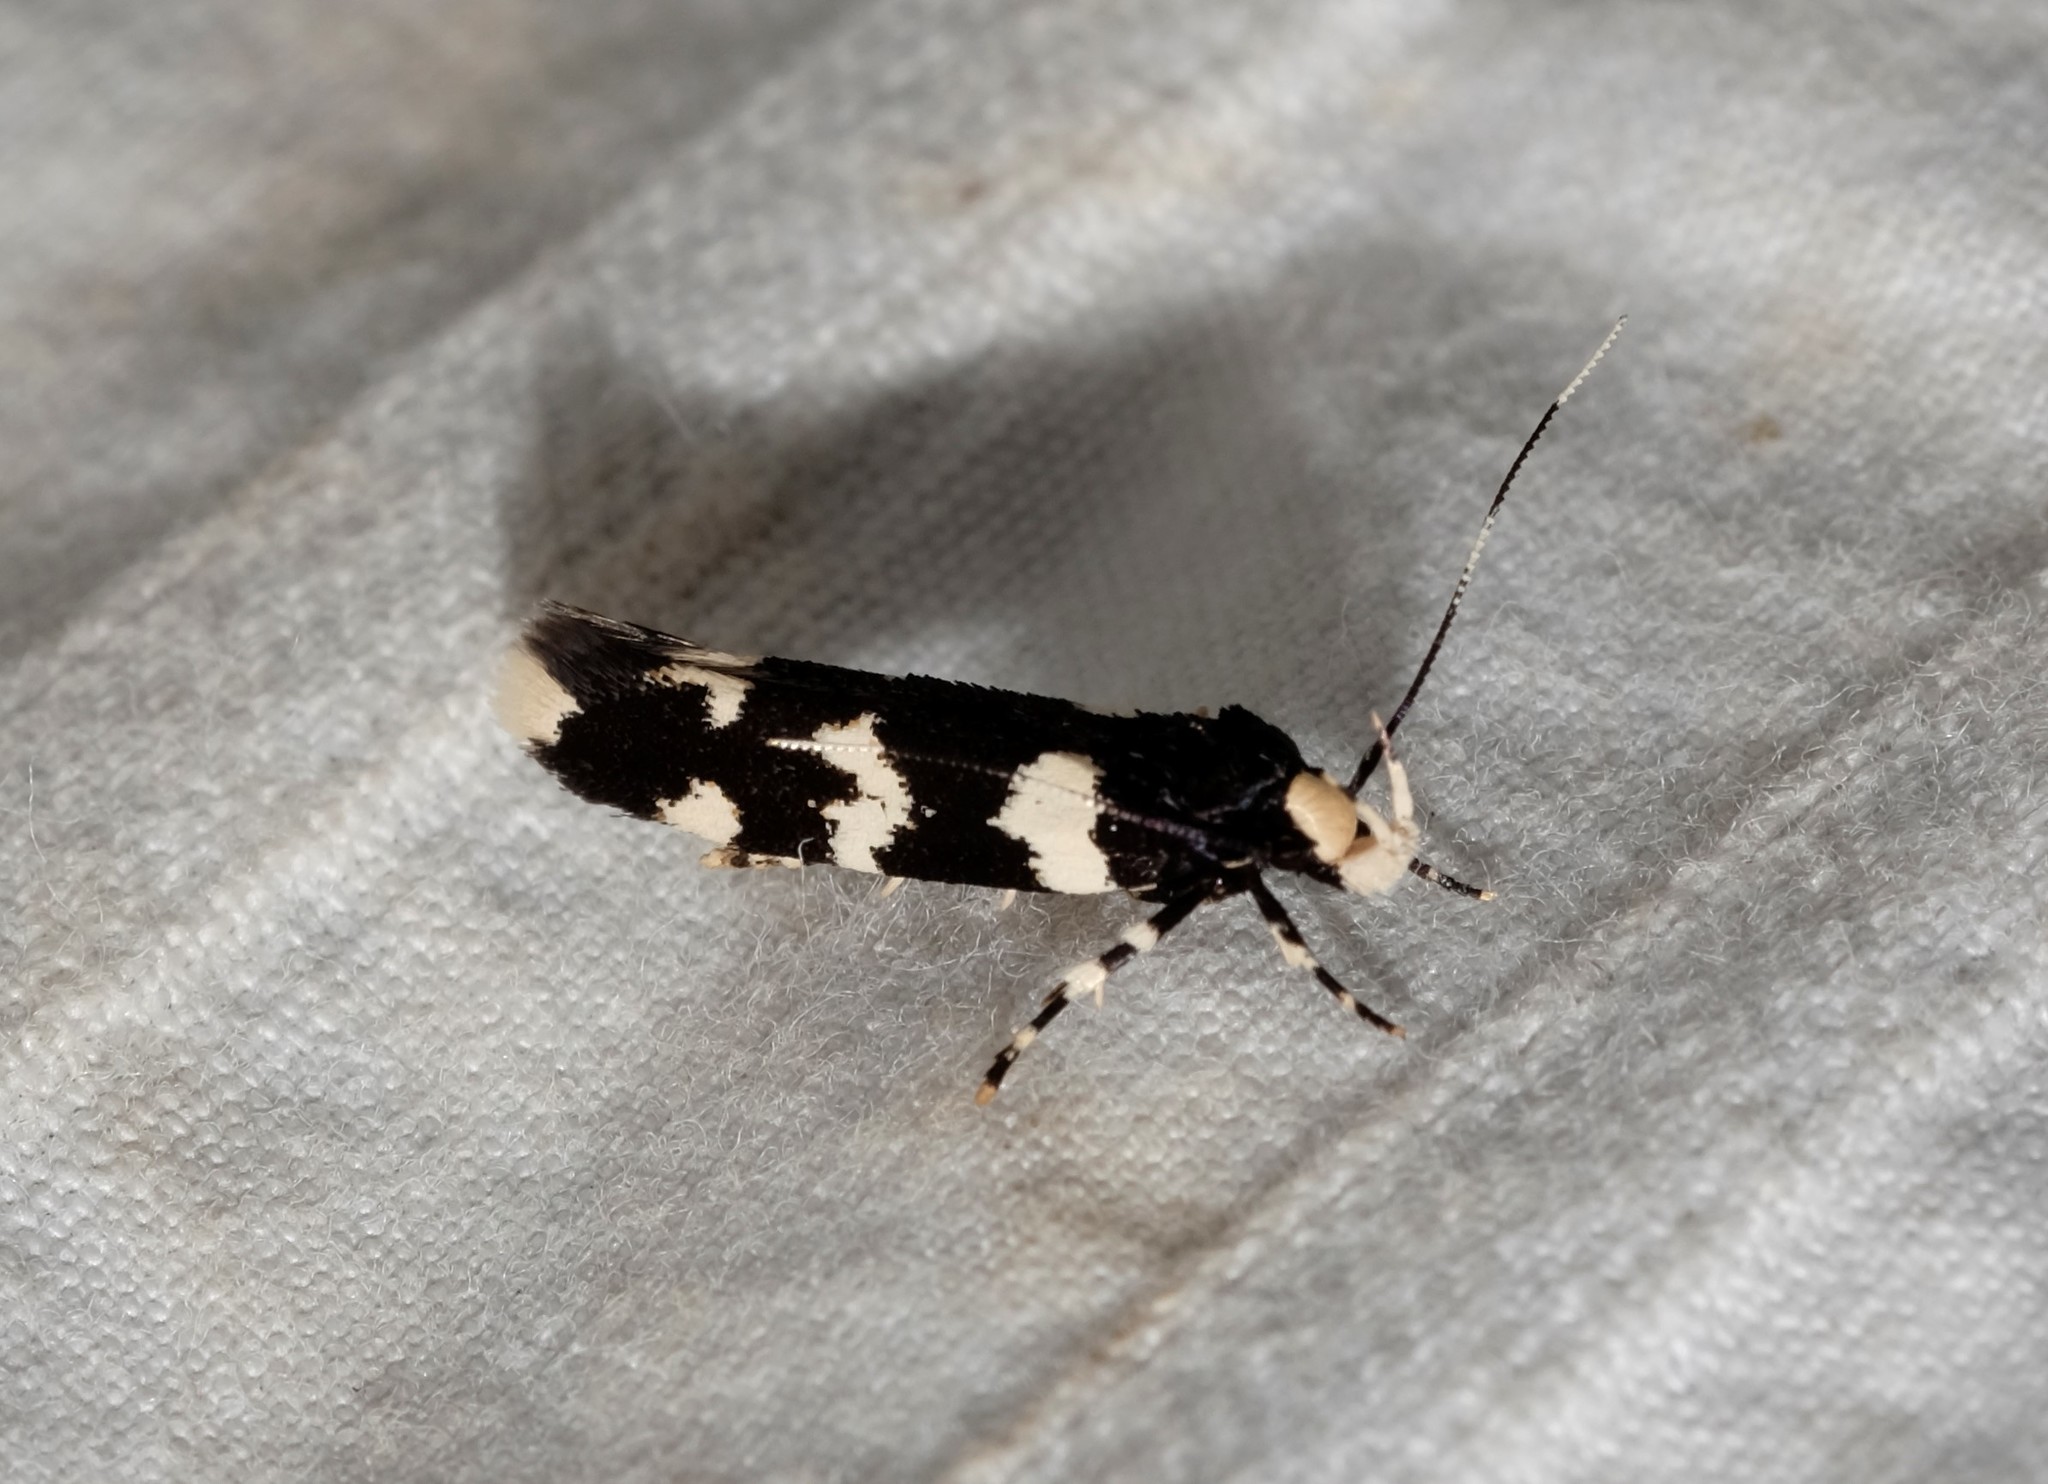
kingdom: Animalia
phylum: Arthropoda
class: Insecta
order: Lepidoptera
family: Cosmopterigidae
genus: Limnaecia
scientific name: Limnaecia cirrhosema
